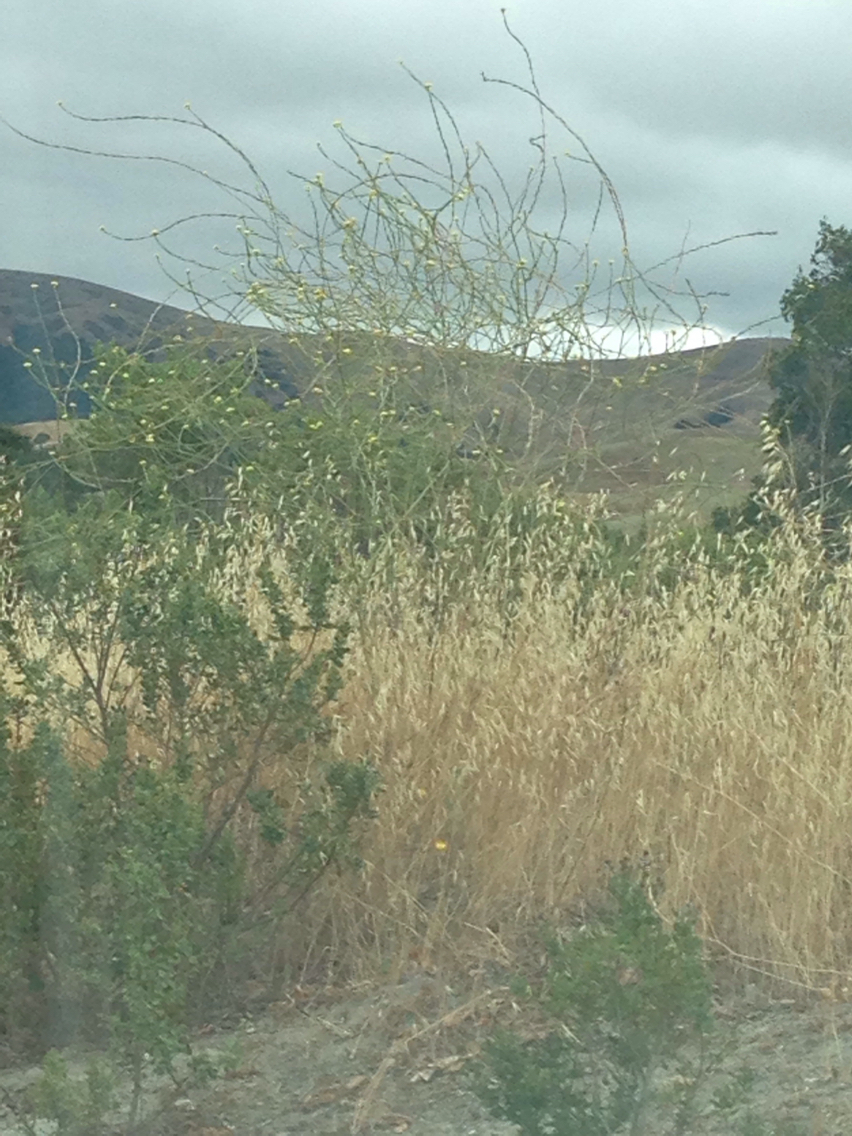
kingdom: Plantae
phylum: Tracheophyta
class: Magnoliopsida
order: Brassicales
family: Brassicaceae
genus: Hirschfeldia
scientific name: Hirschfeldia incana
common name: Hoary mustard
